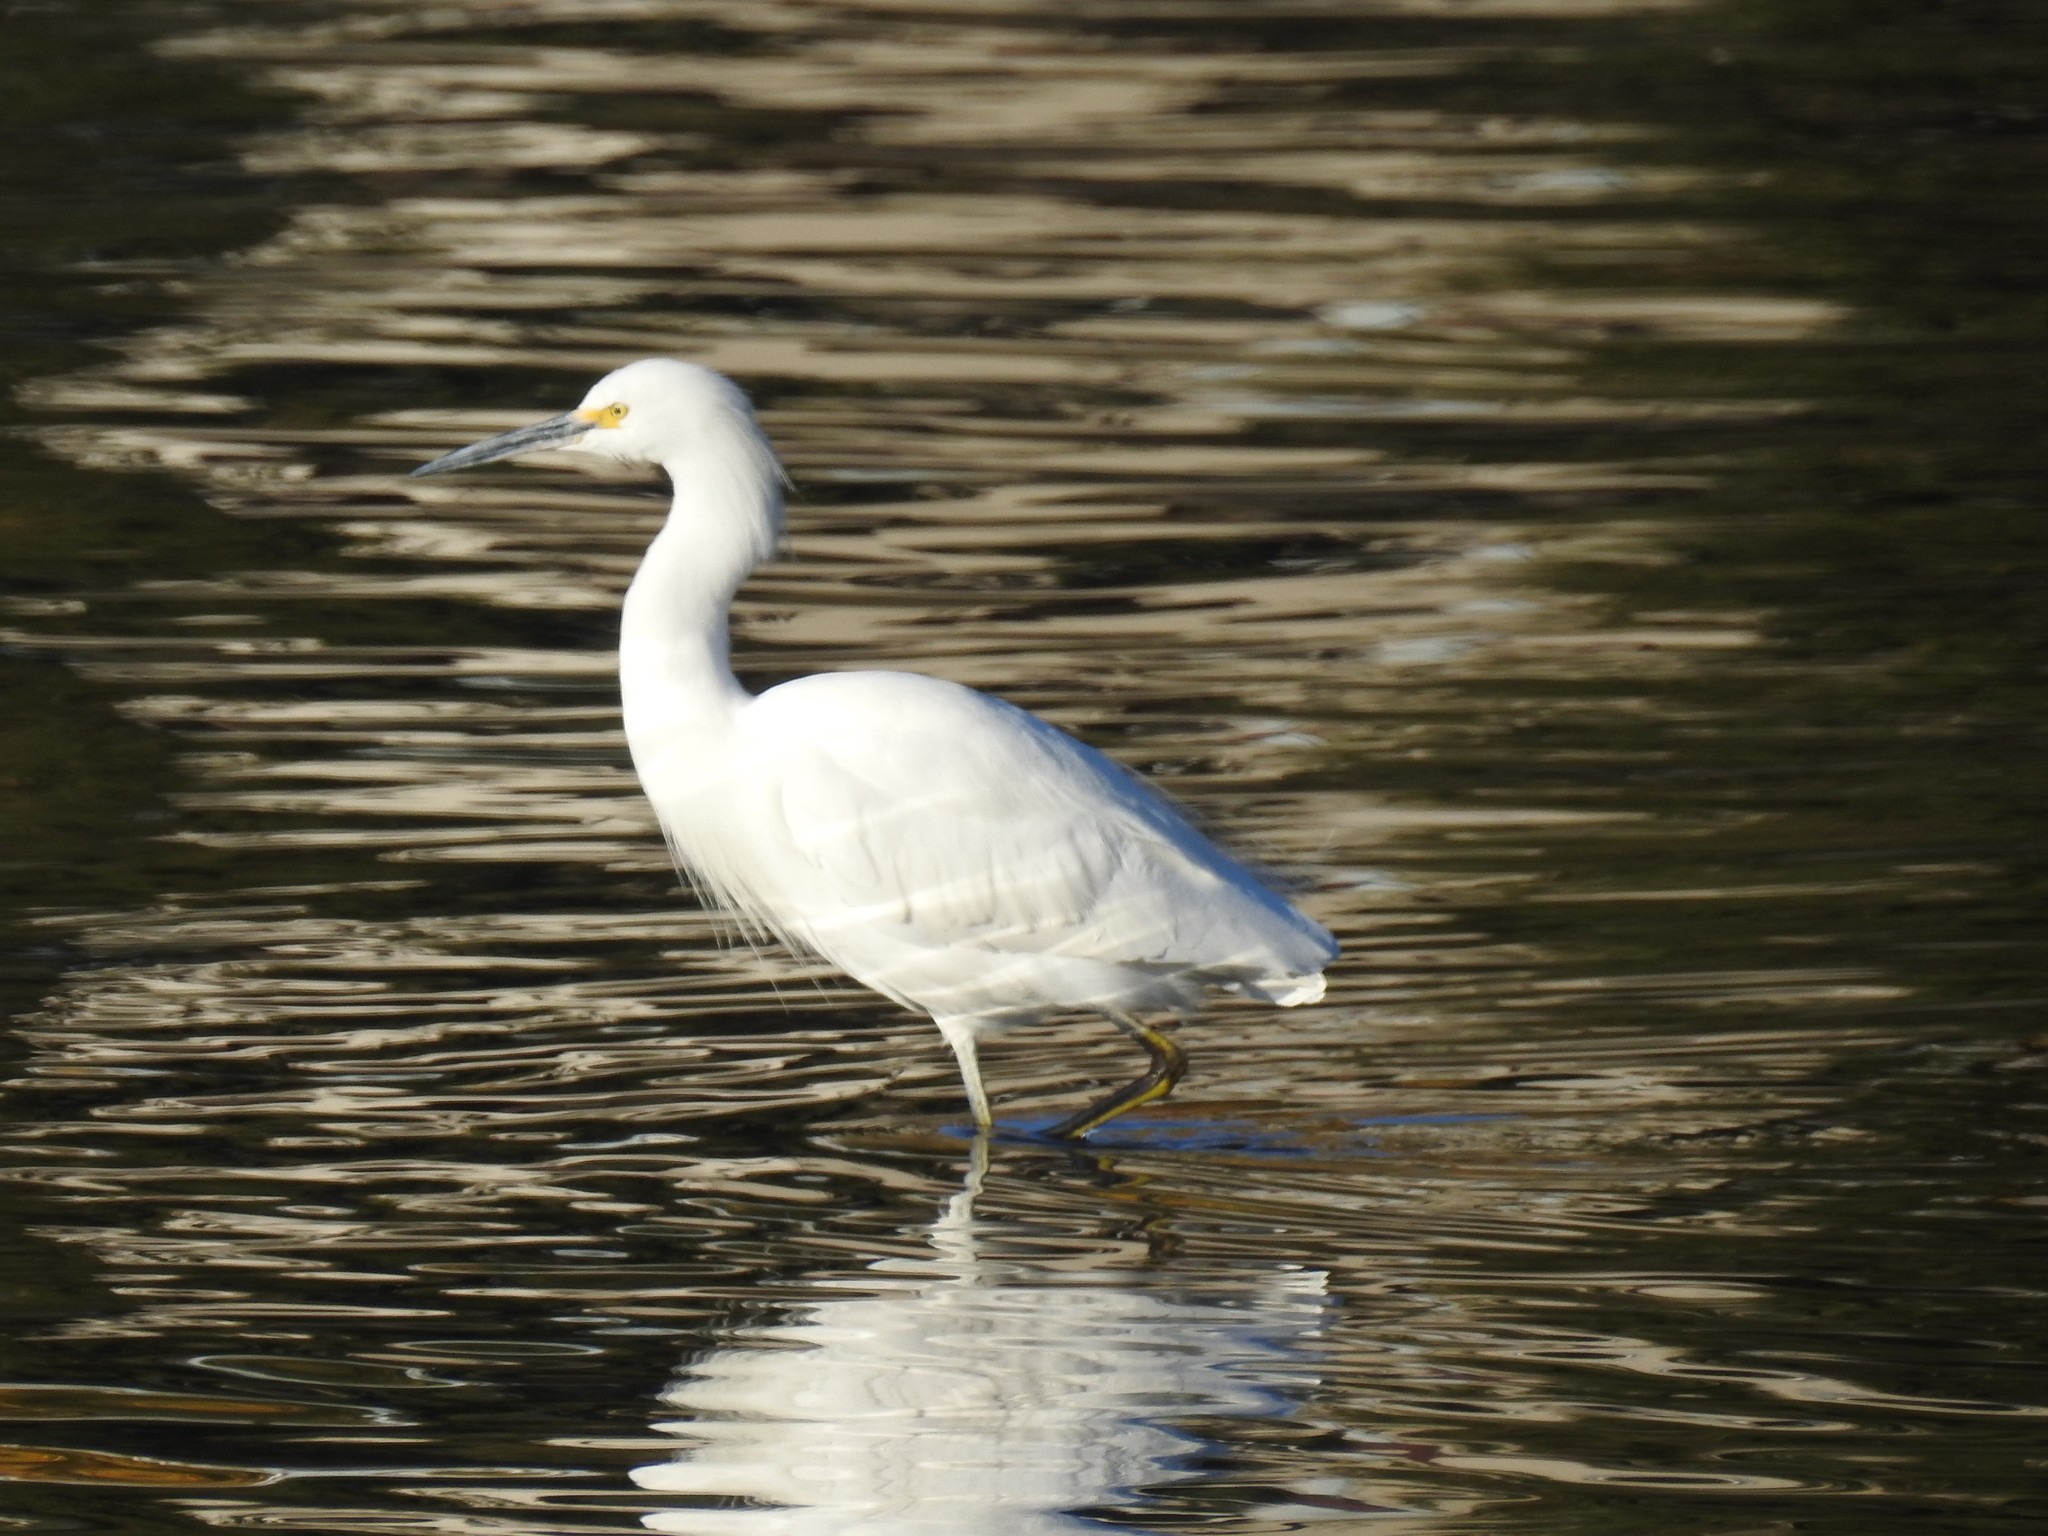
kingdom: Animalia
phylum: Chordata
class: Aves
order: Pelecaniformes
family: Ardeidae
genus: Egretta
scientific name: Egretta thula
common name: Snowy egret
